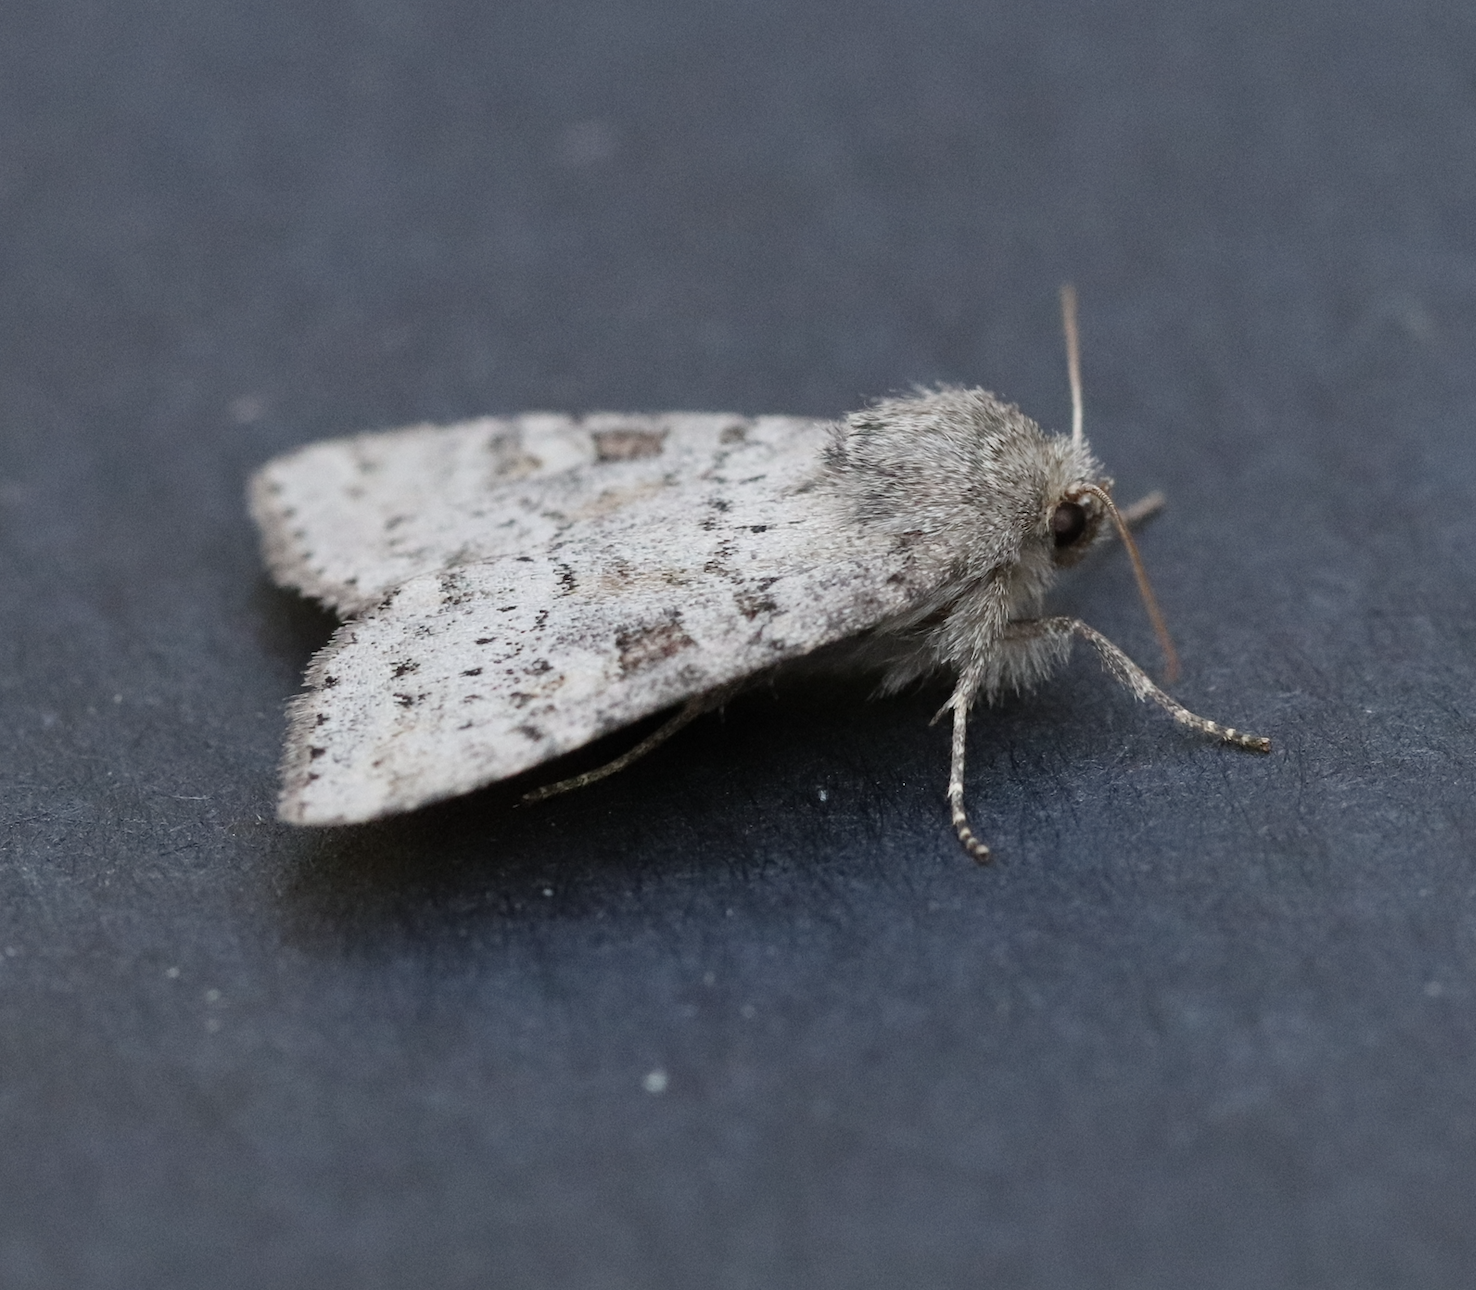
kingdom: Animalia
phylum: Arthropoda
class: Insecta
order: Lepidoptera
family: Noctuidae
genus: Parastichtis
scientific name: Parastichtis suspecta
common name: Suspected
